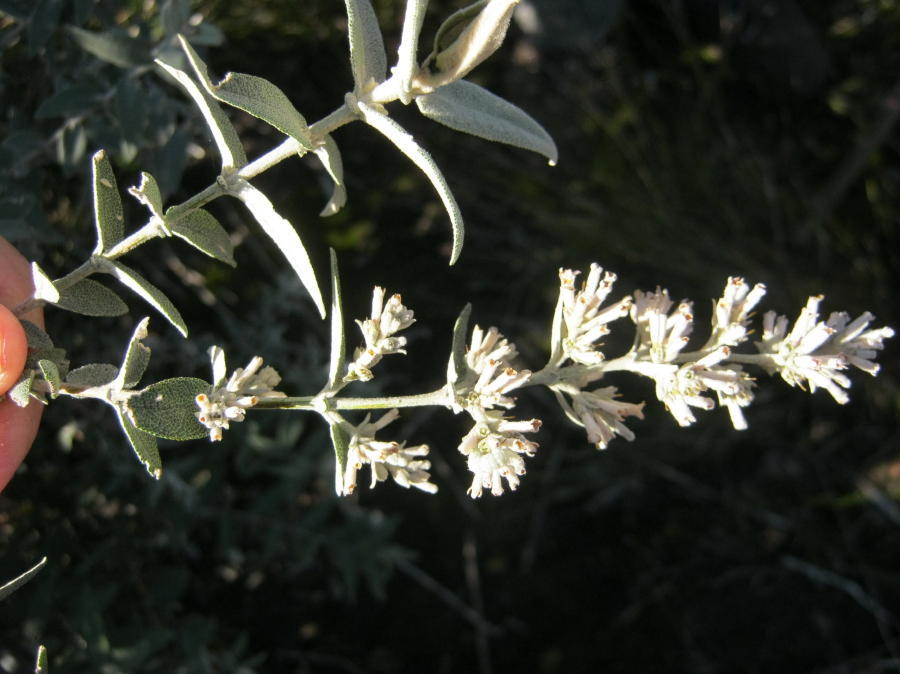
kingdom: Plantae
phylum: Tracheophyta
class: Magnoliopsida
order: Asterales
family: Asteraceae
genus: Tarchonanthus
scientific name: Tarchonanthus littoralis
